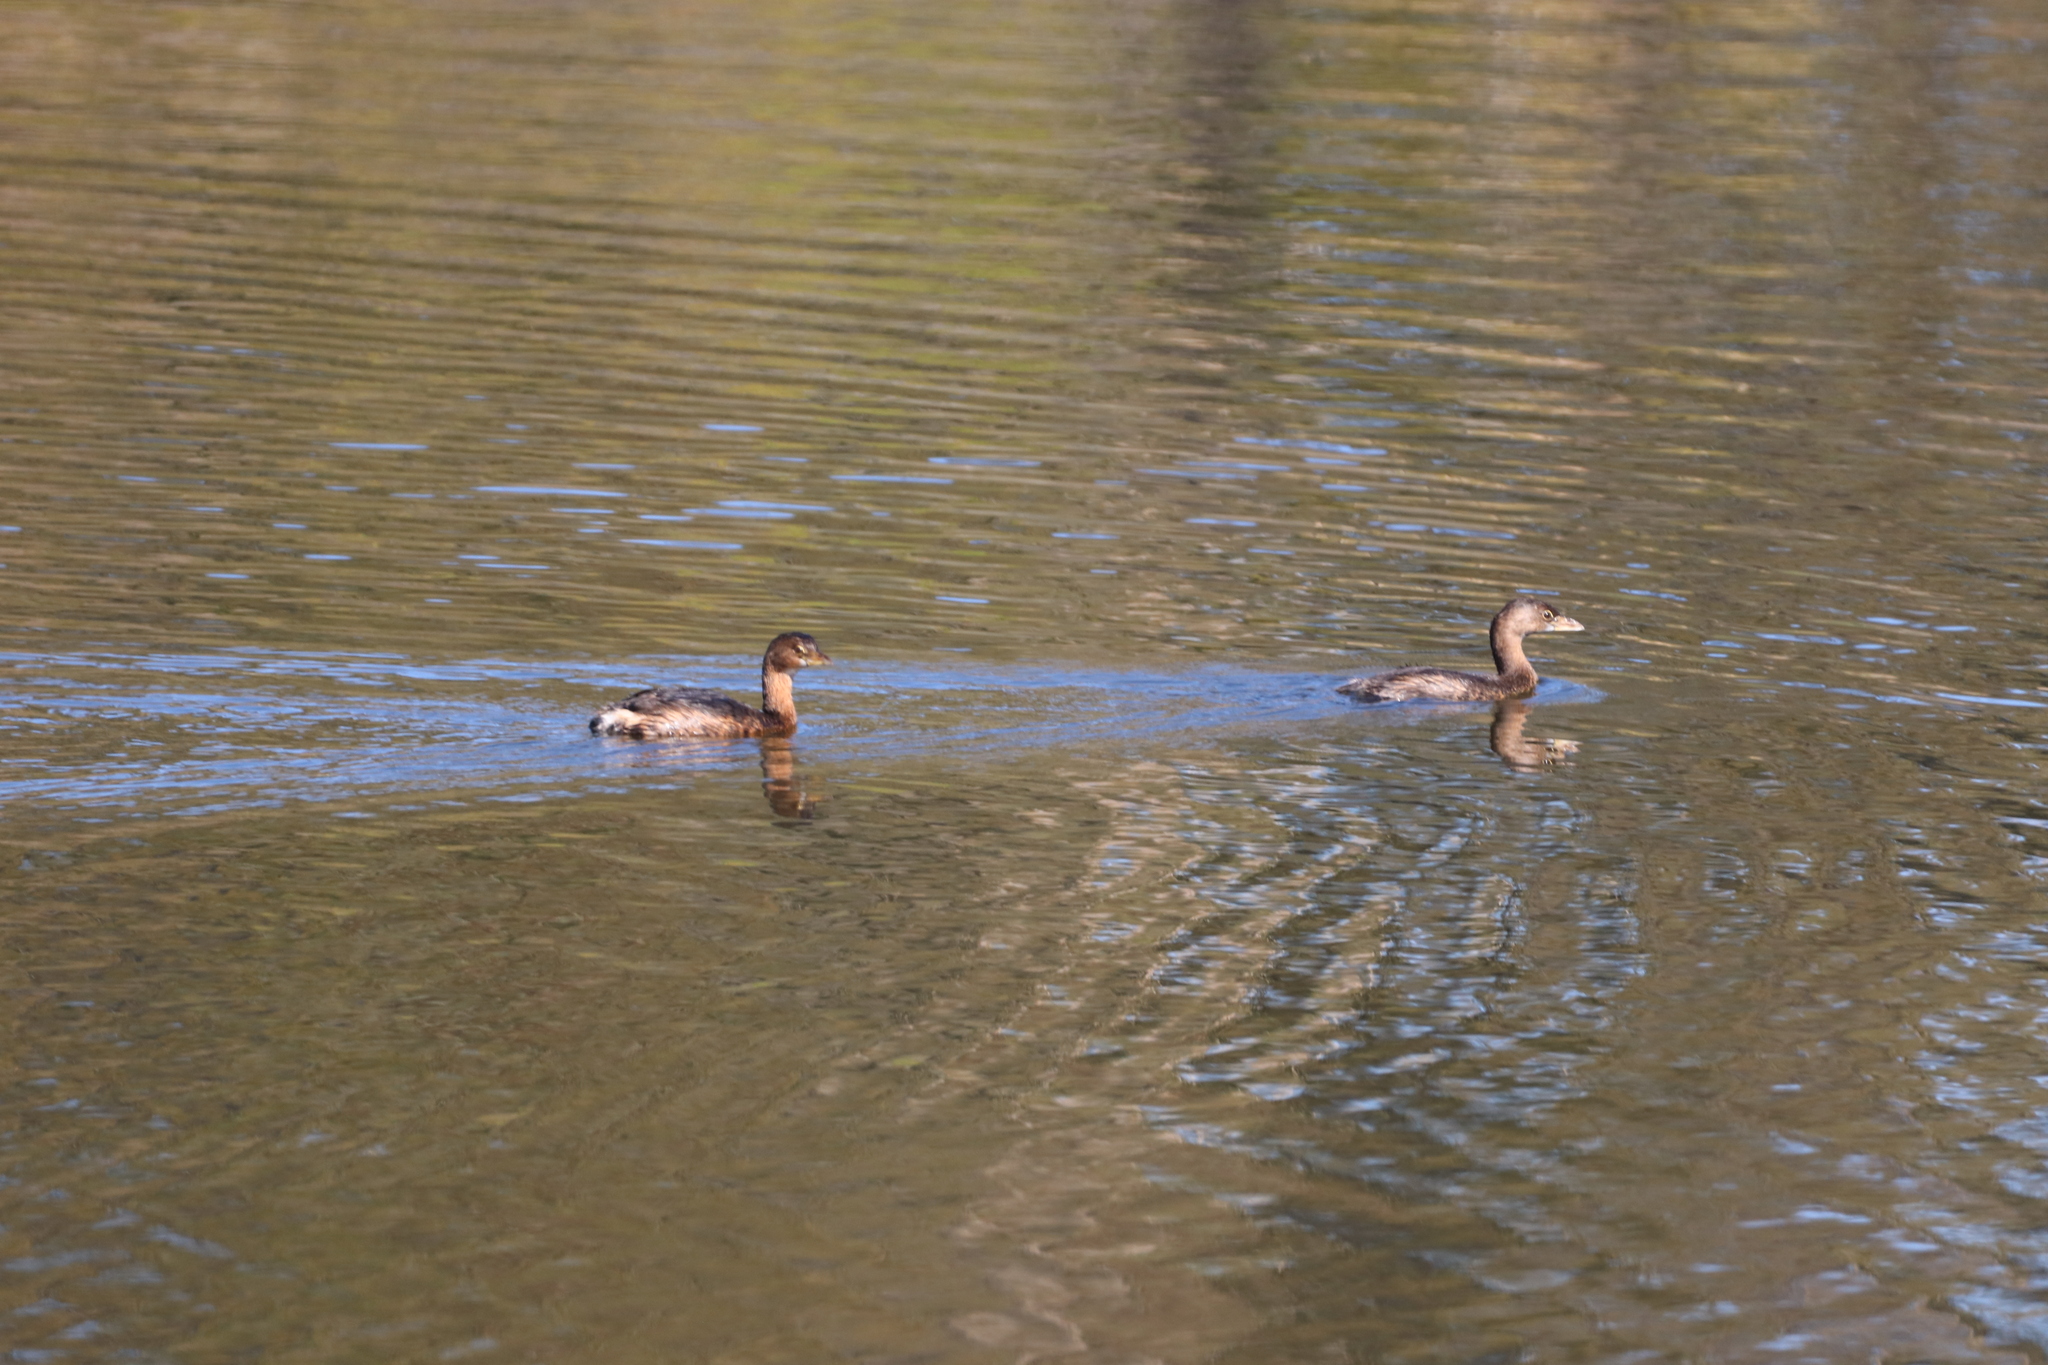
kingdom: Animalia
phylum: Chordata
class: Aves
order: Podicipediformes
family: Podicipedidae
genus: Podilymbus
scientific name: Podilymbus podiceps
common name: Pied-billed grebe
